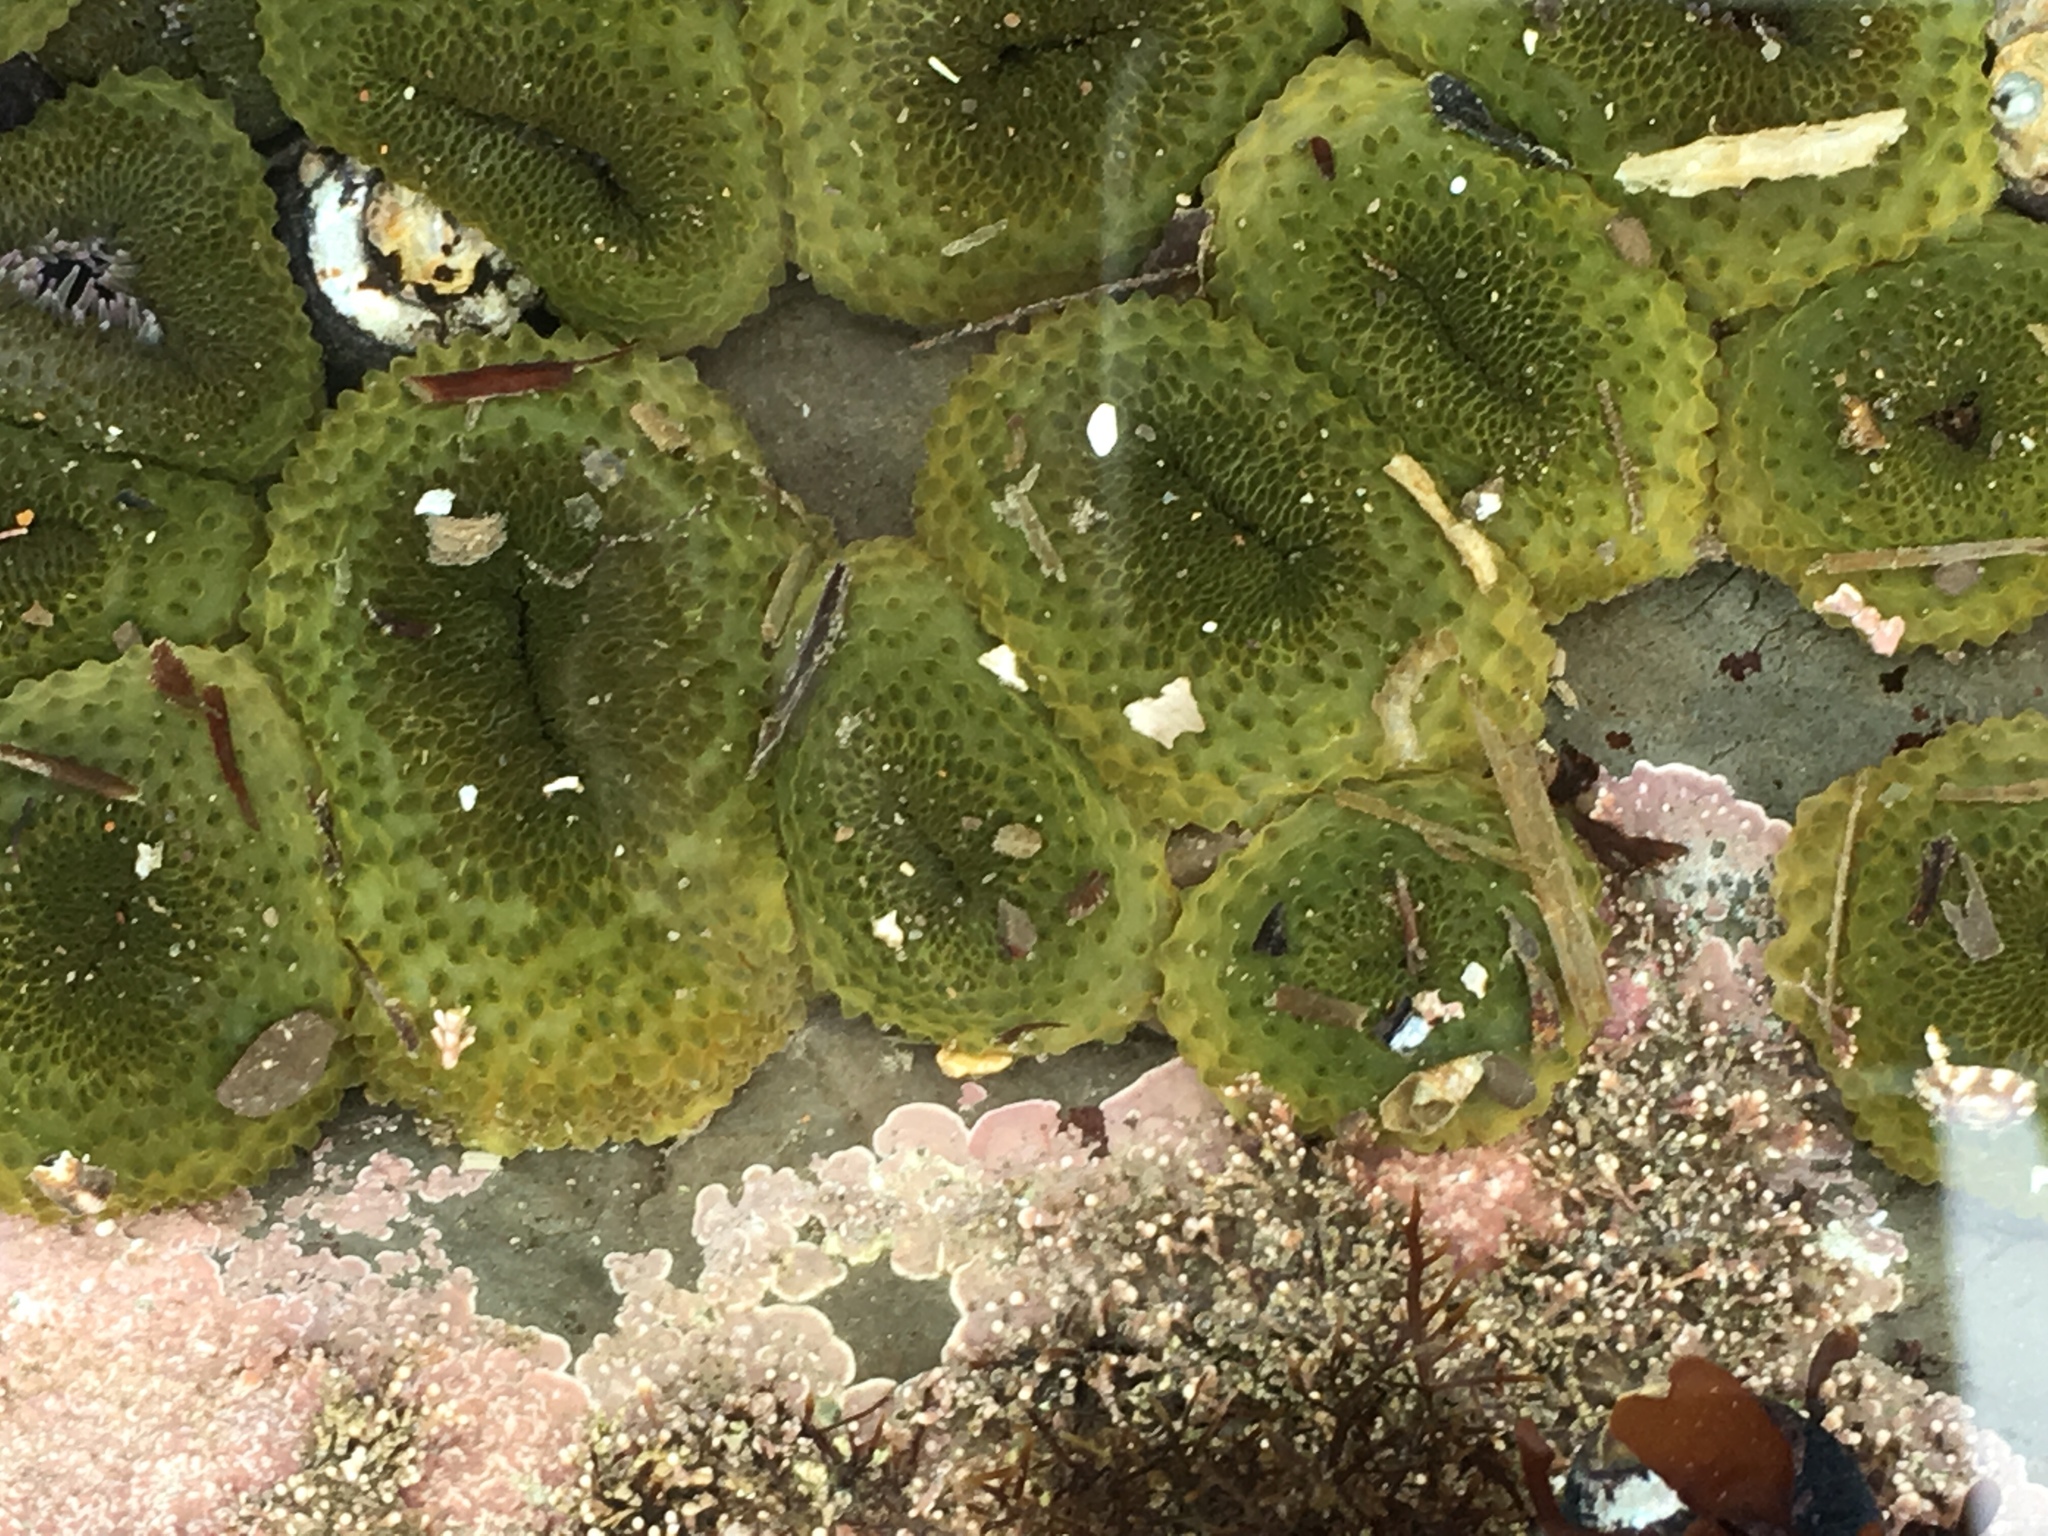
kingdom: Animalia
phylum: Cnidaria
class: Anthozoa
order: Actiniaria
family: Actiniidae
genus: Anthopleura
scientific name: Anthopleura elegantissima
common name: Clonal anemone
